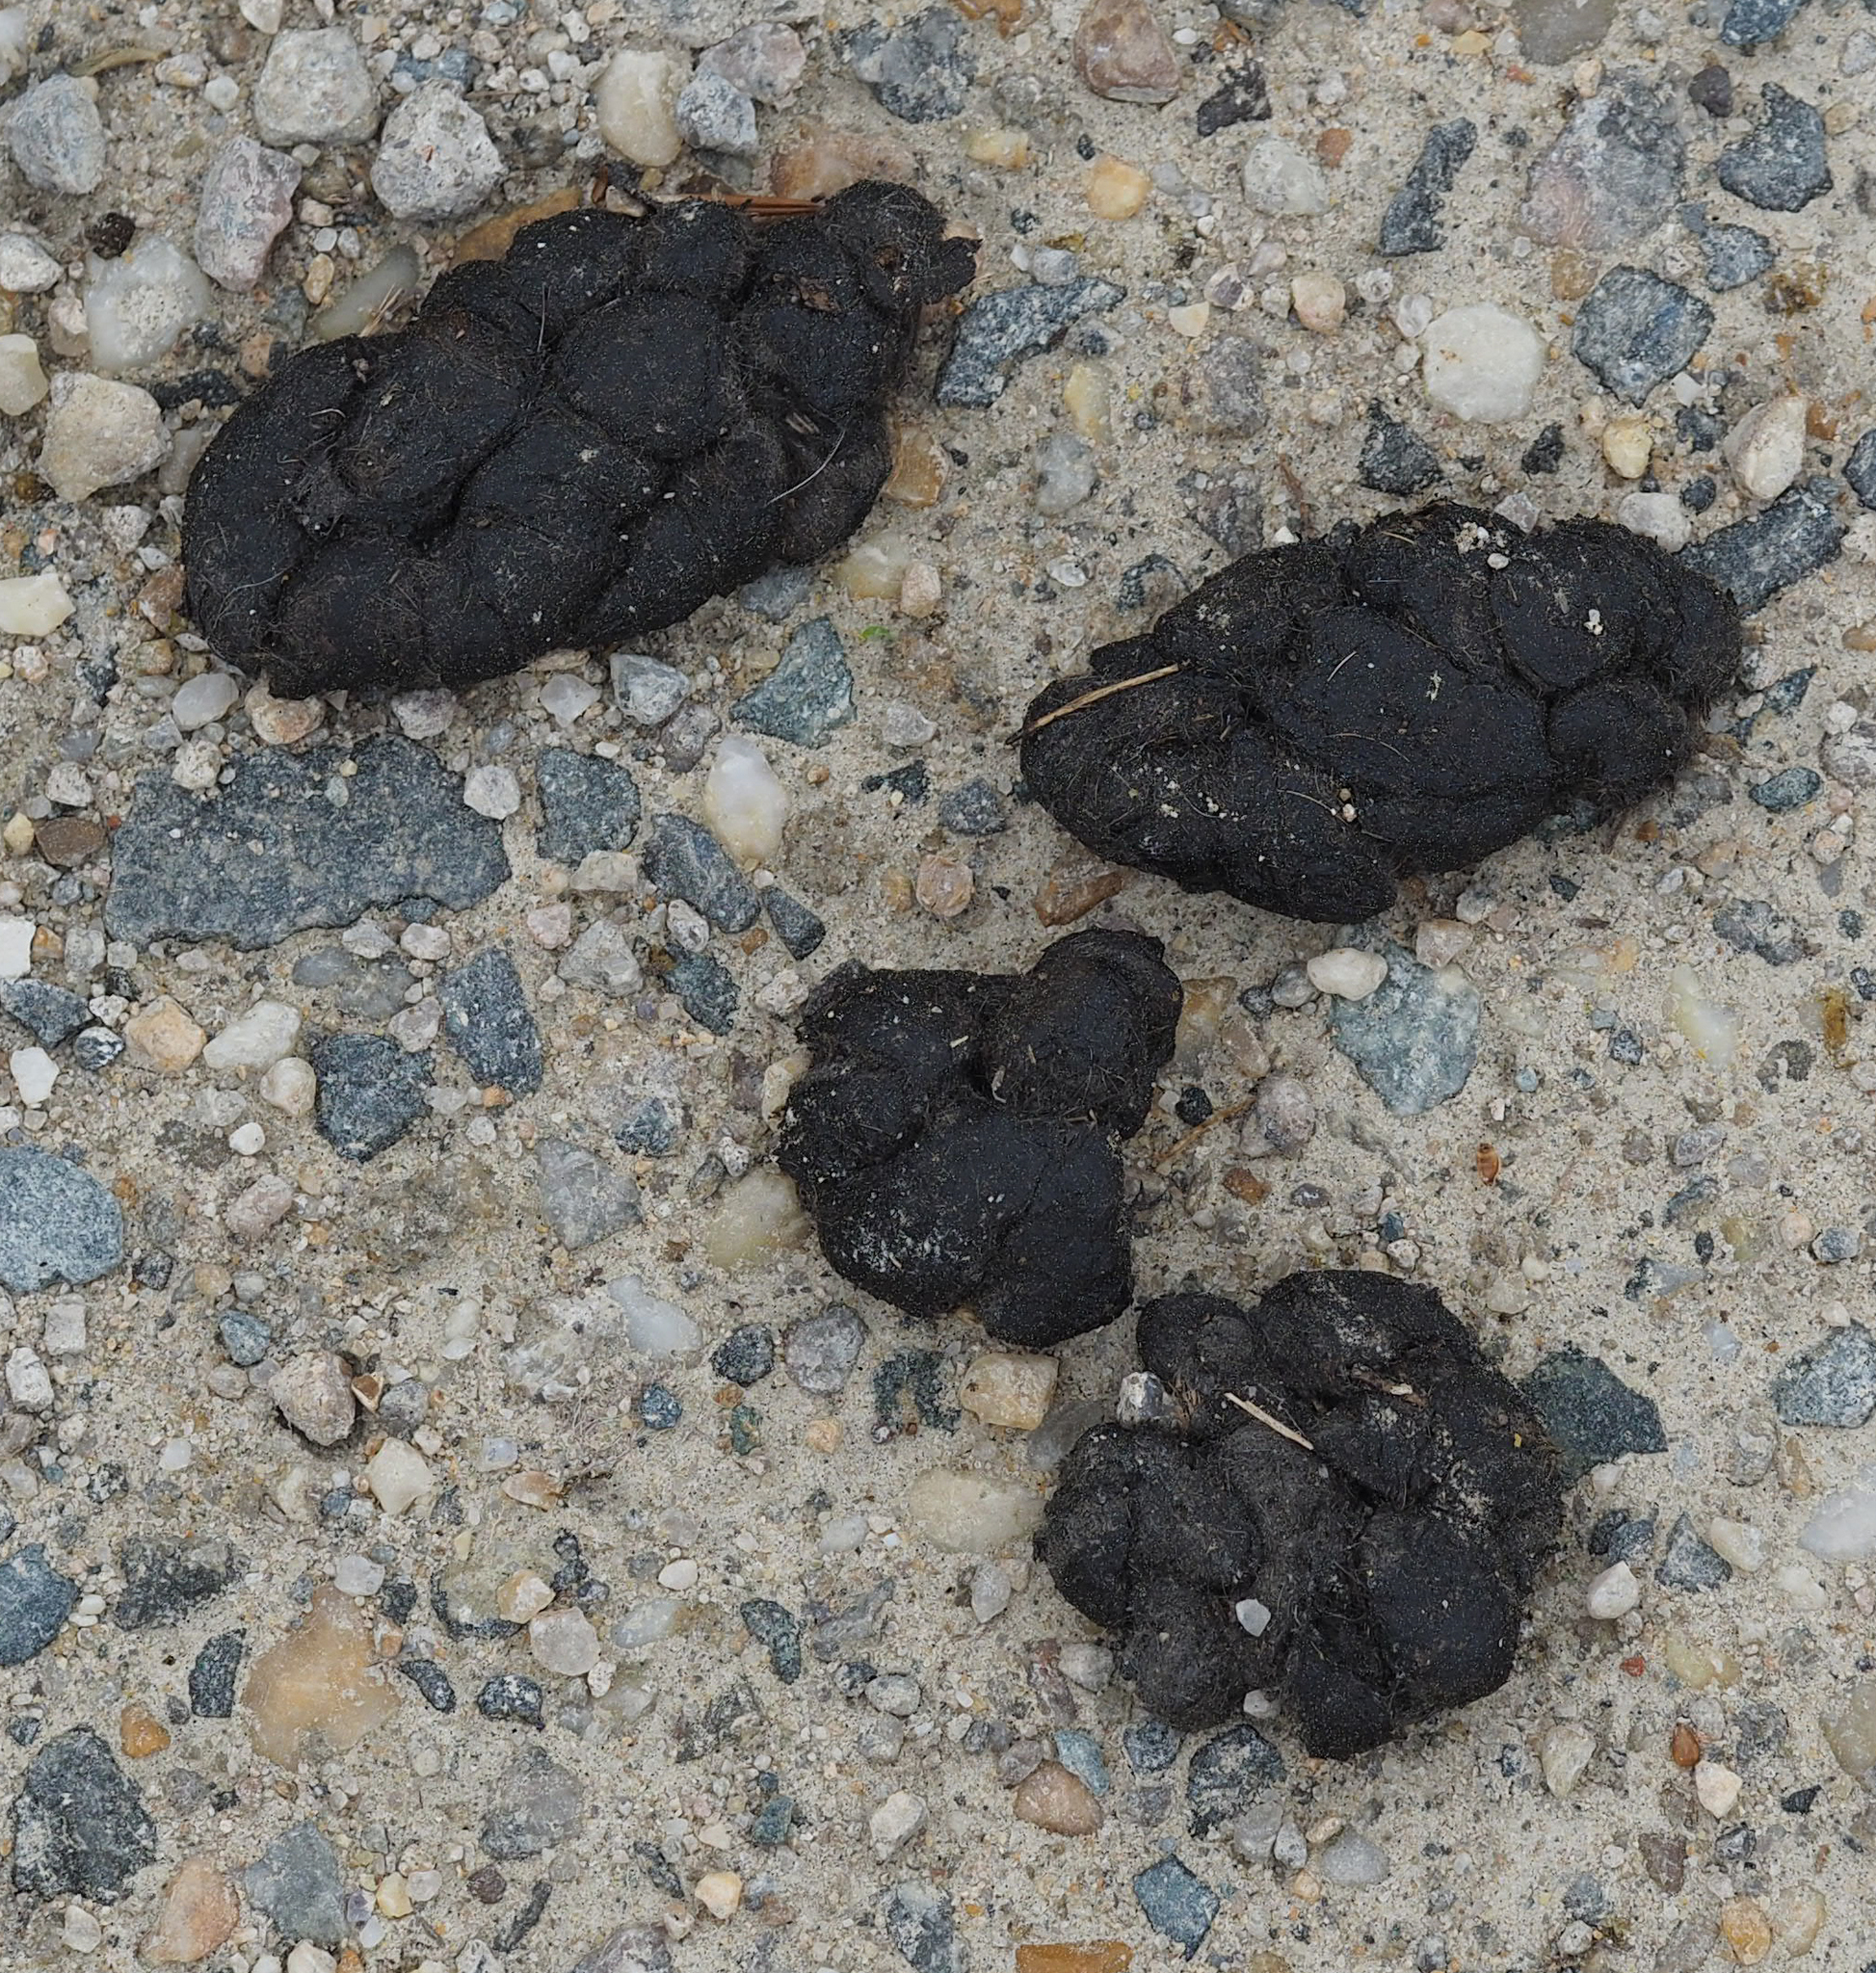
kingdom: Animalia
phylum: Chordata
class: Mammalia
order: Artiodactyla
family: Cervidae
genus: Odocoileus
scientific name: Odocoileus virginianus
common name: White-tailed deer
